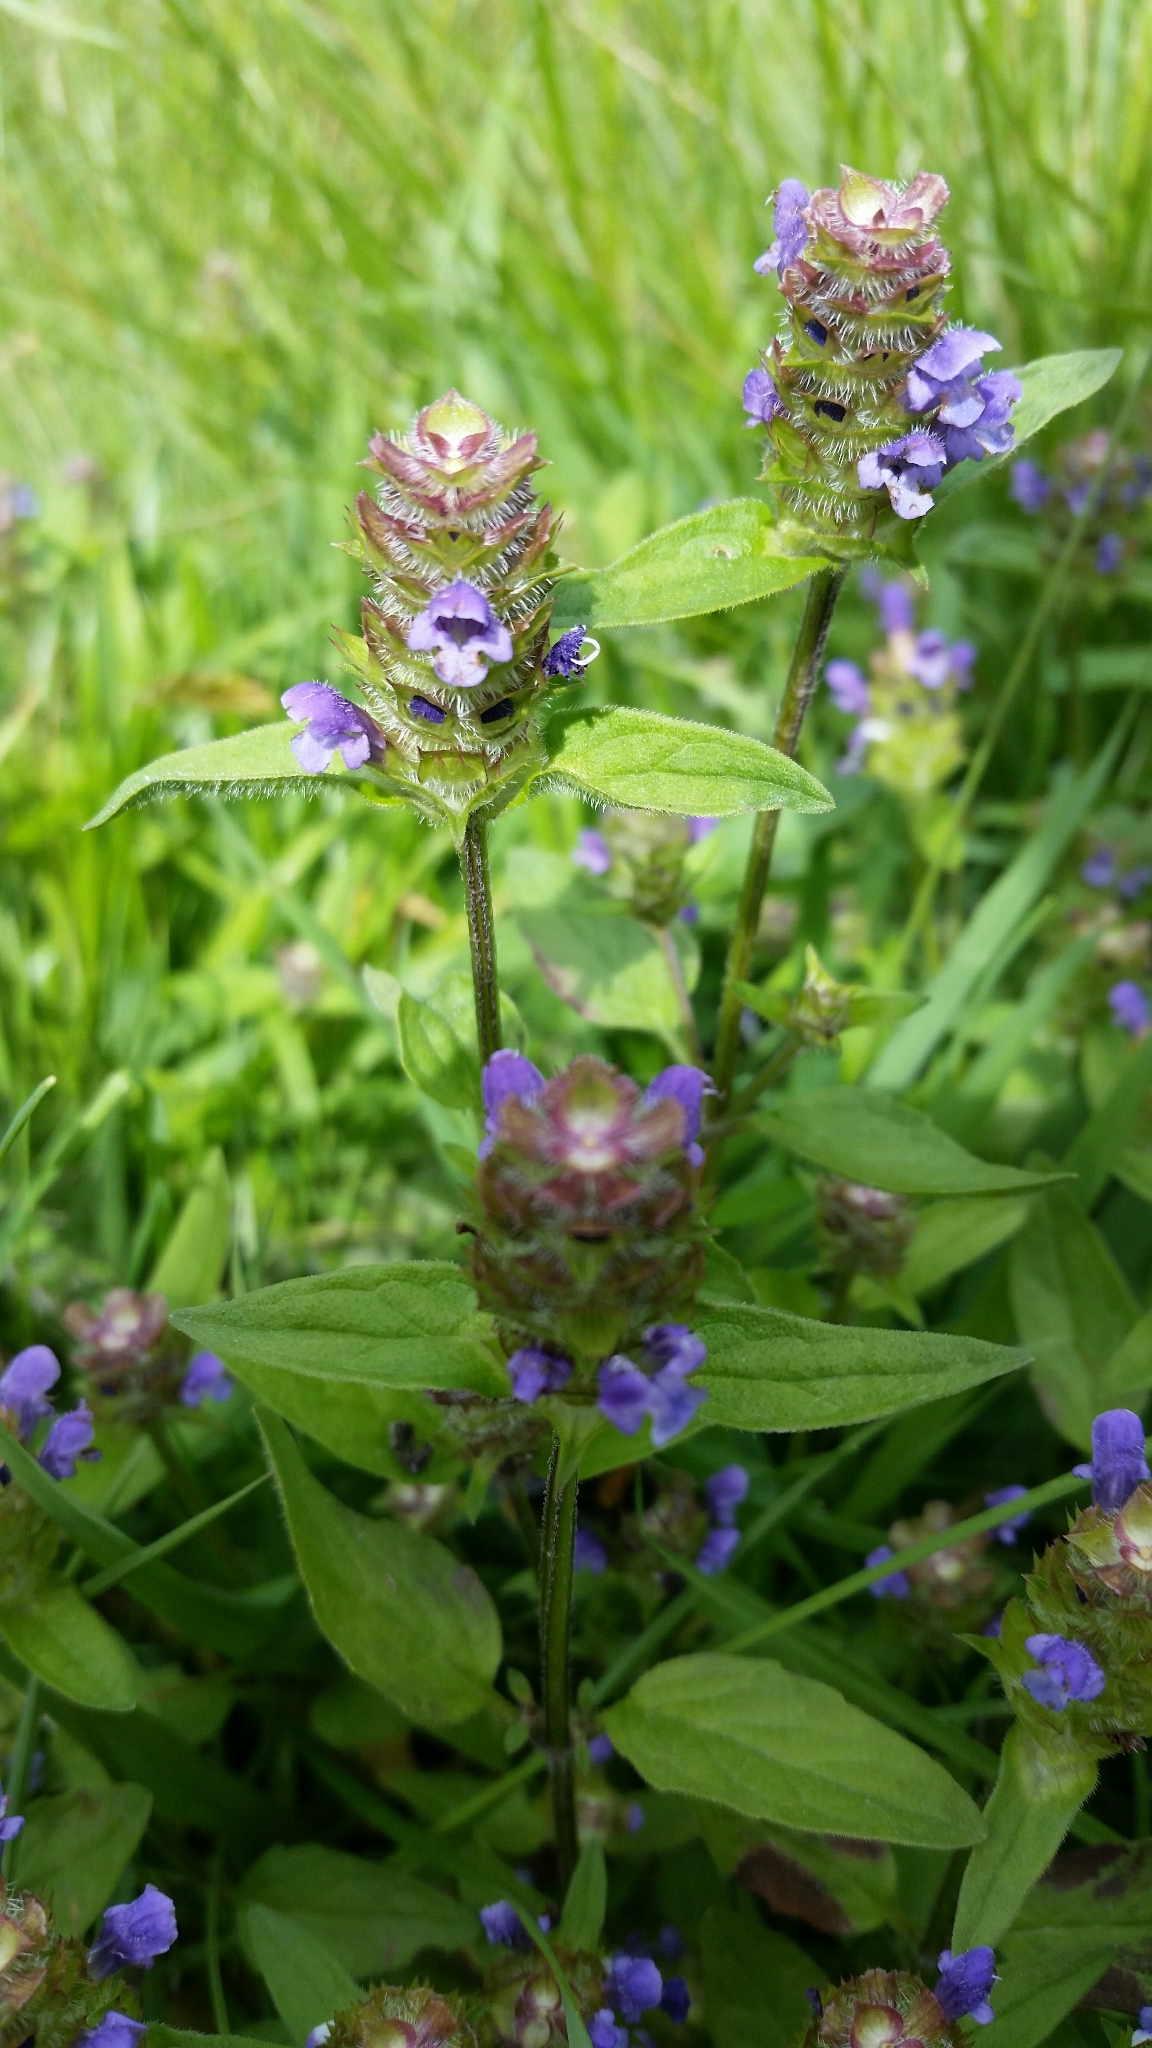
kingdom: Plantae
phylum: Tracheophyta
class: Magnoliopsida
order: Lamiales
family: Lamiaceae
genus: Prunella
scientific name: Prunella vulgaris
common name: Heal-all
